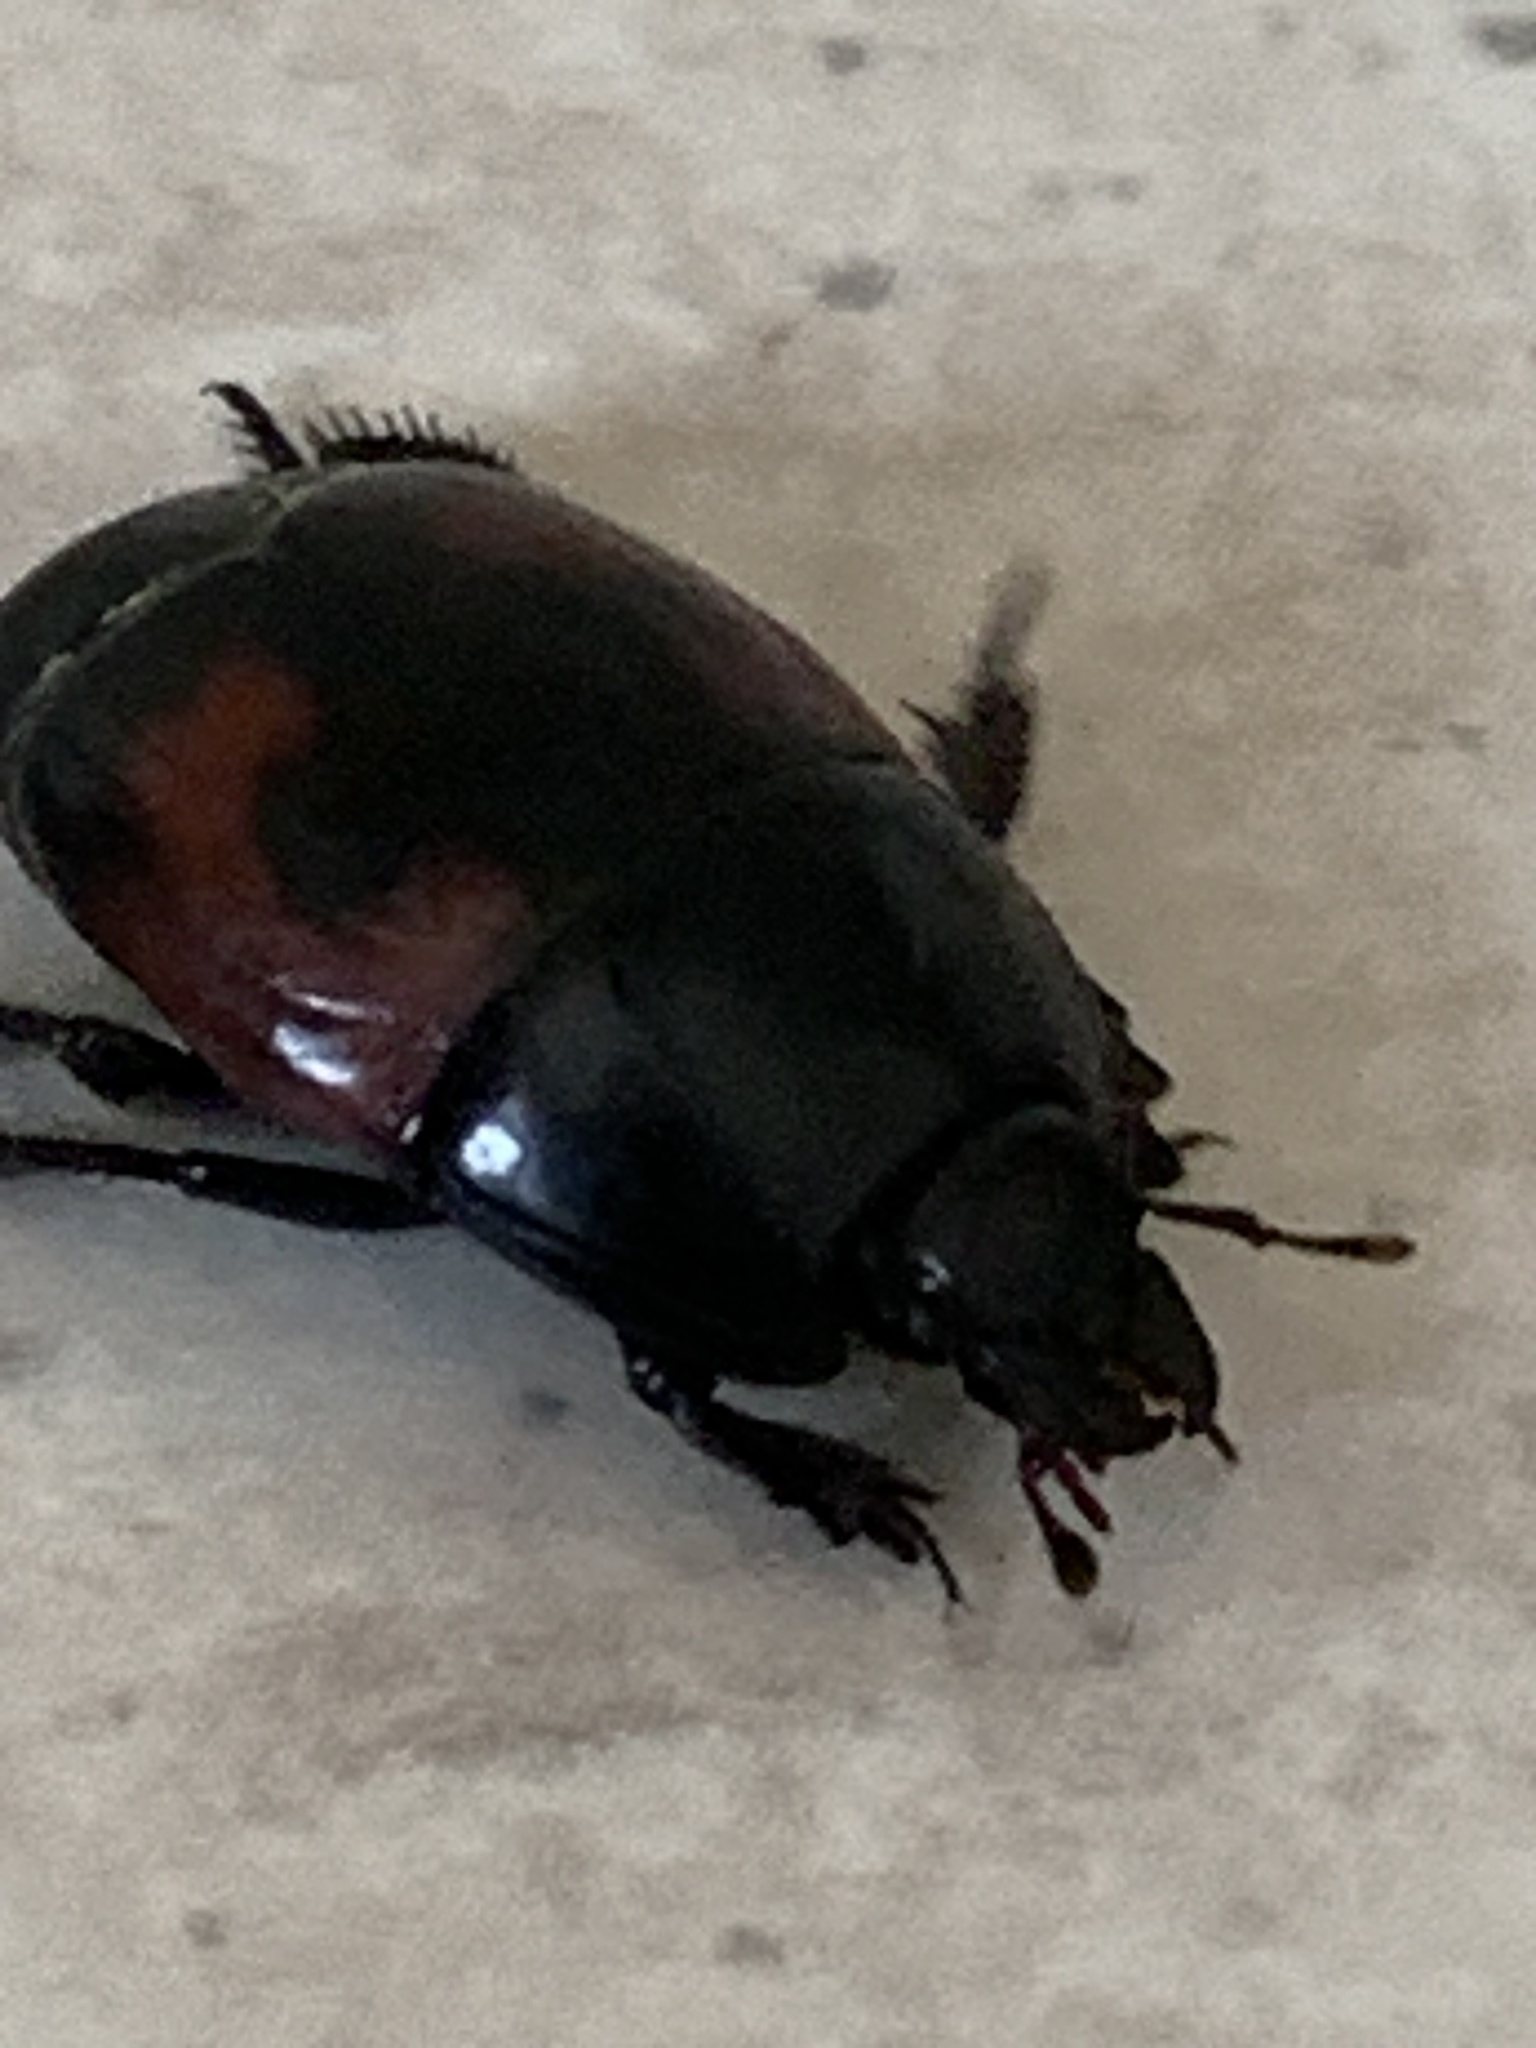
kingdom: Animalia
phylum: Arthropoda
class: Insecta
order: Coleoptera
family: Histeridae
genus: Hister
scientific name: Hister quadrimaculatus
